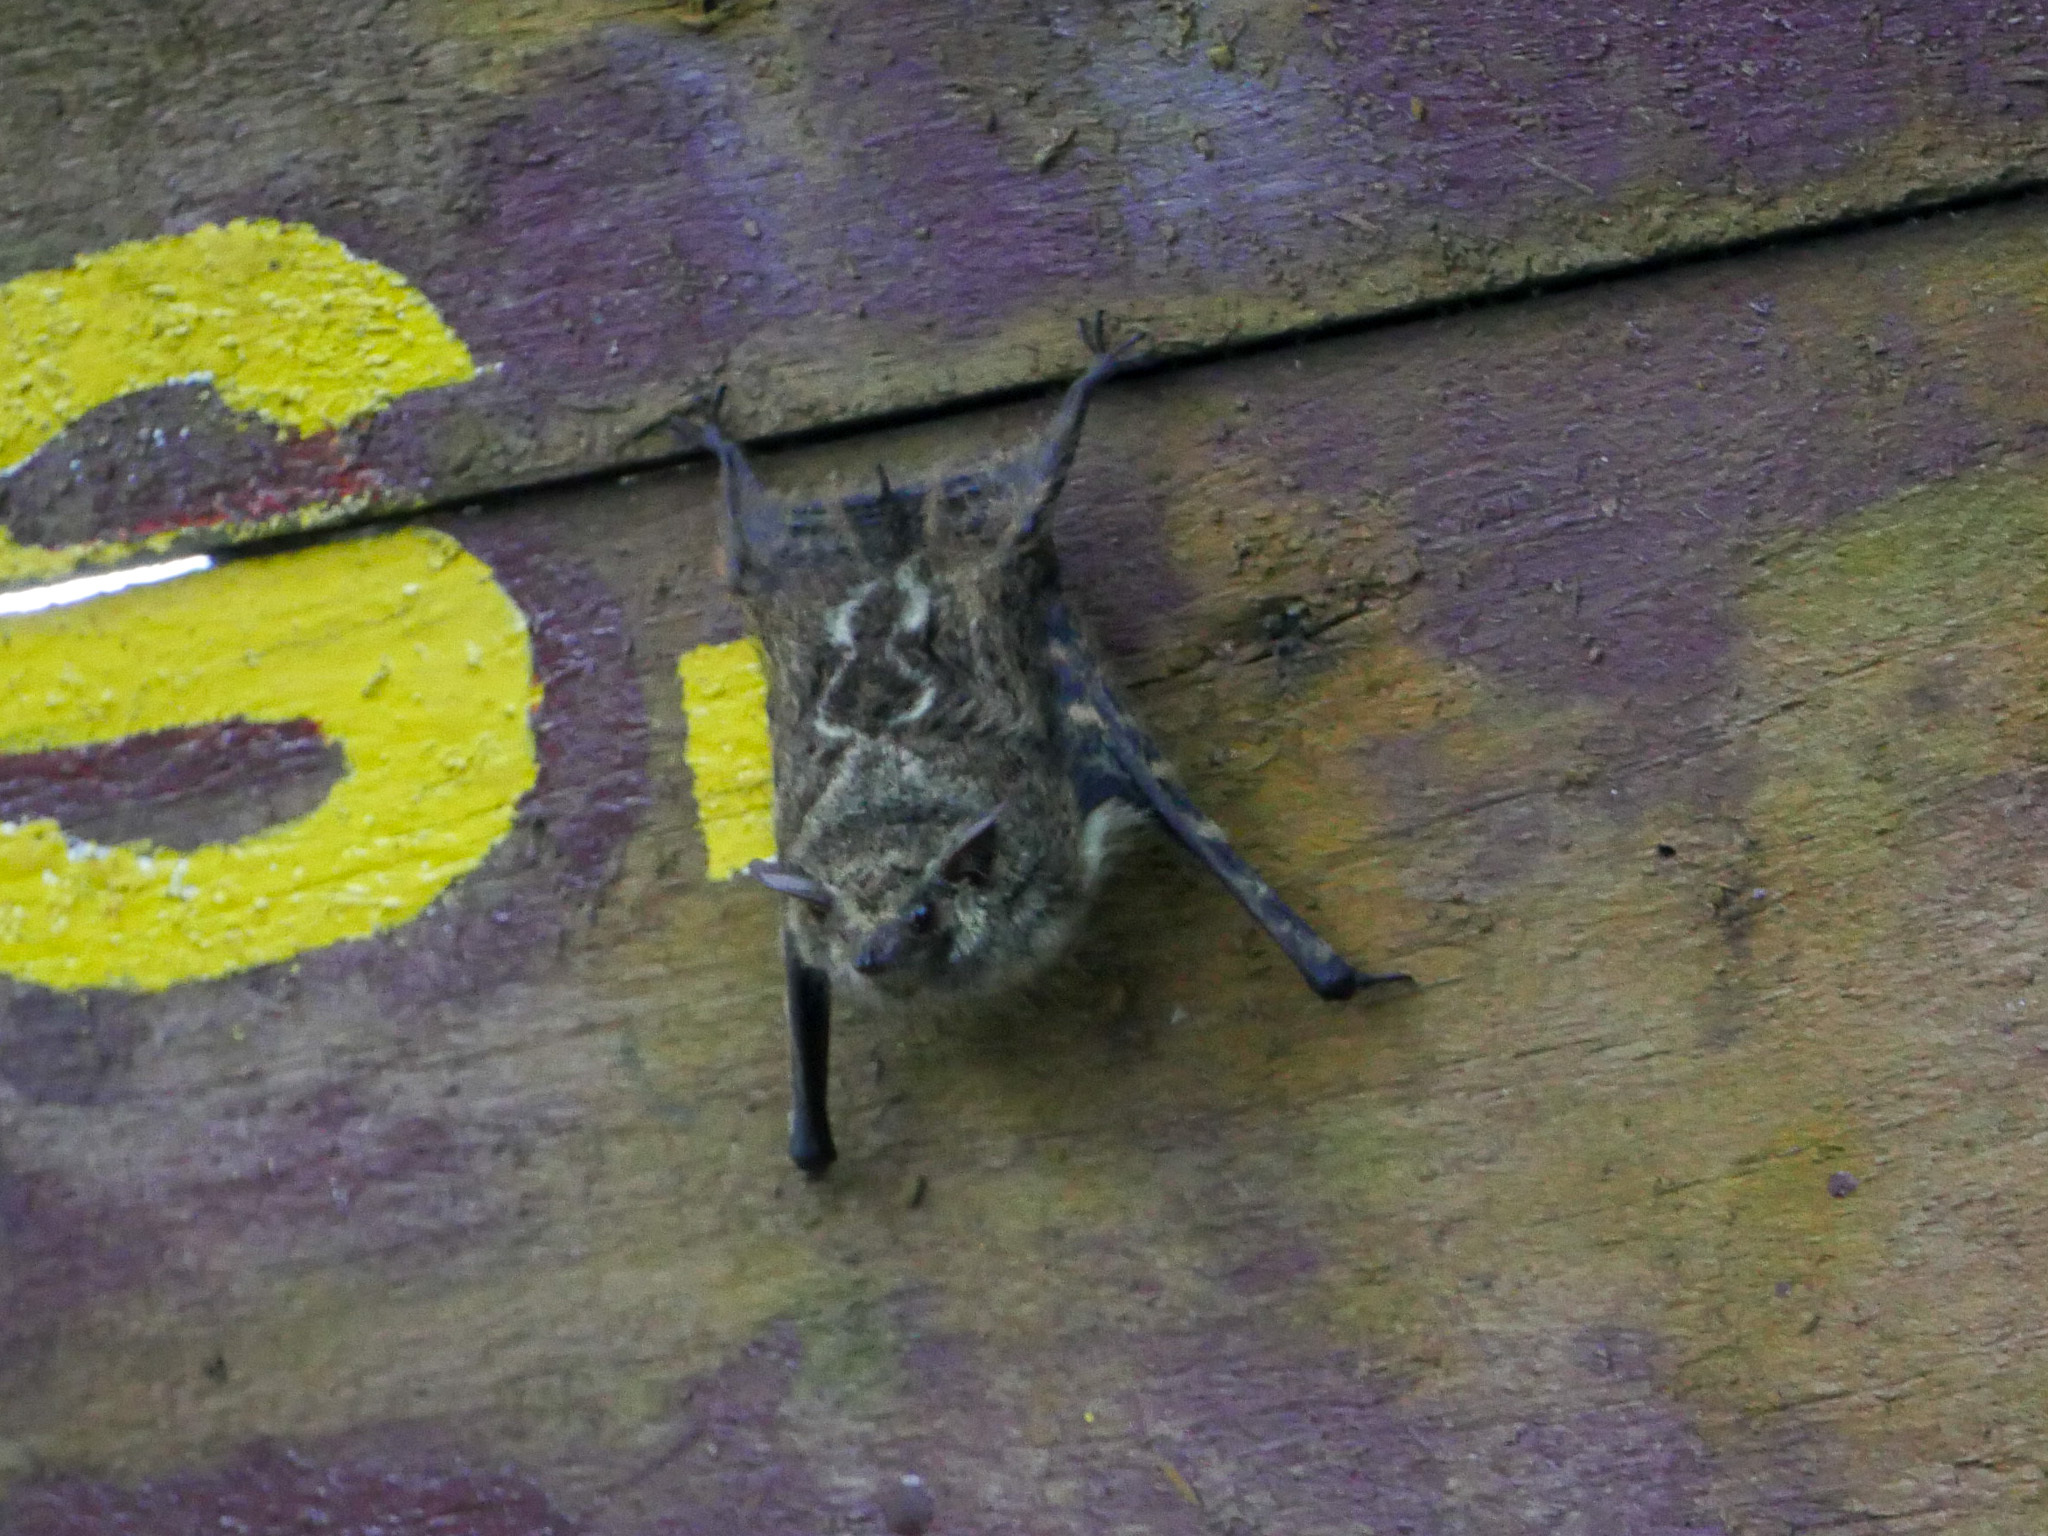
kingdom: Animalia
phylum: Chordata
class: Mammalia
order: Chiroptera
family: Emballonuridae
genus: Rhynchonycteris
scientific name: Rhynchonycteris naso
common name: Proboscis bat
